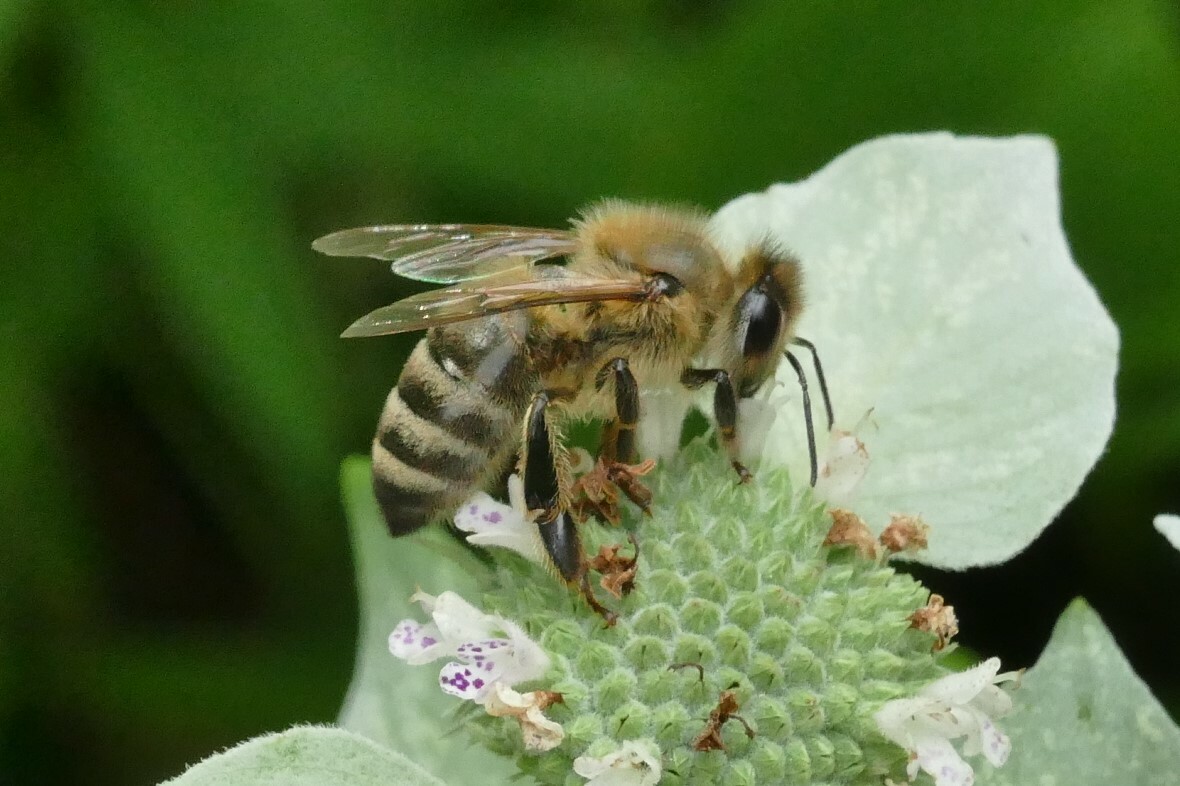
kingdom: Animalia
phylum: Arthropoda
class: Insecta
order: Hymenoptera
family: Apidae
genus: Apis
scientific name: Apis mellifera
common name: Honey bee
